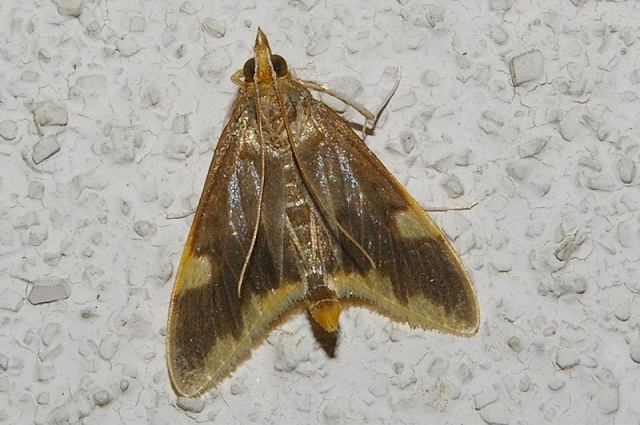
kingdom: Animalia
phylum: Arthropoda
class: Insecta
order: Lepidoptera
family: Crambidae
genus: Crocidophora
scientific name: Crocidophora butleri
